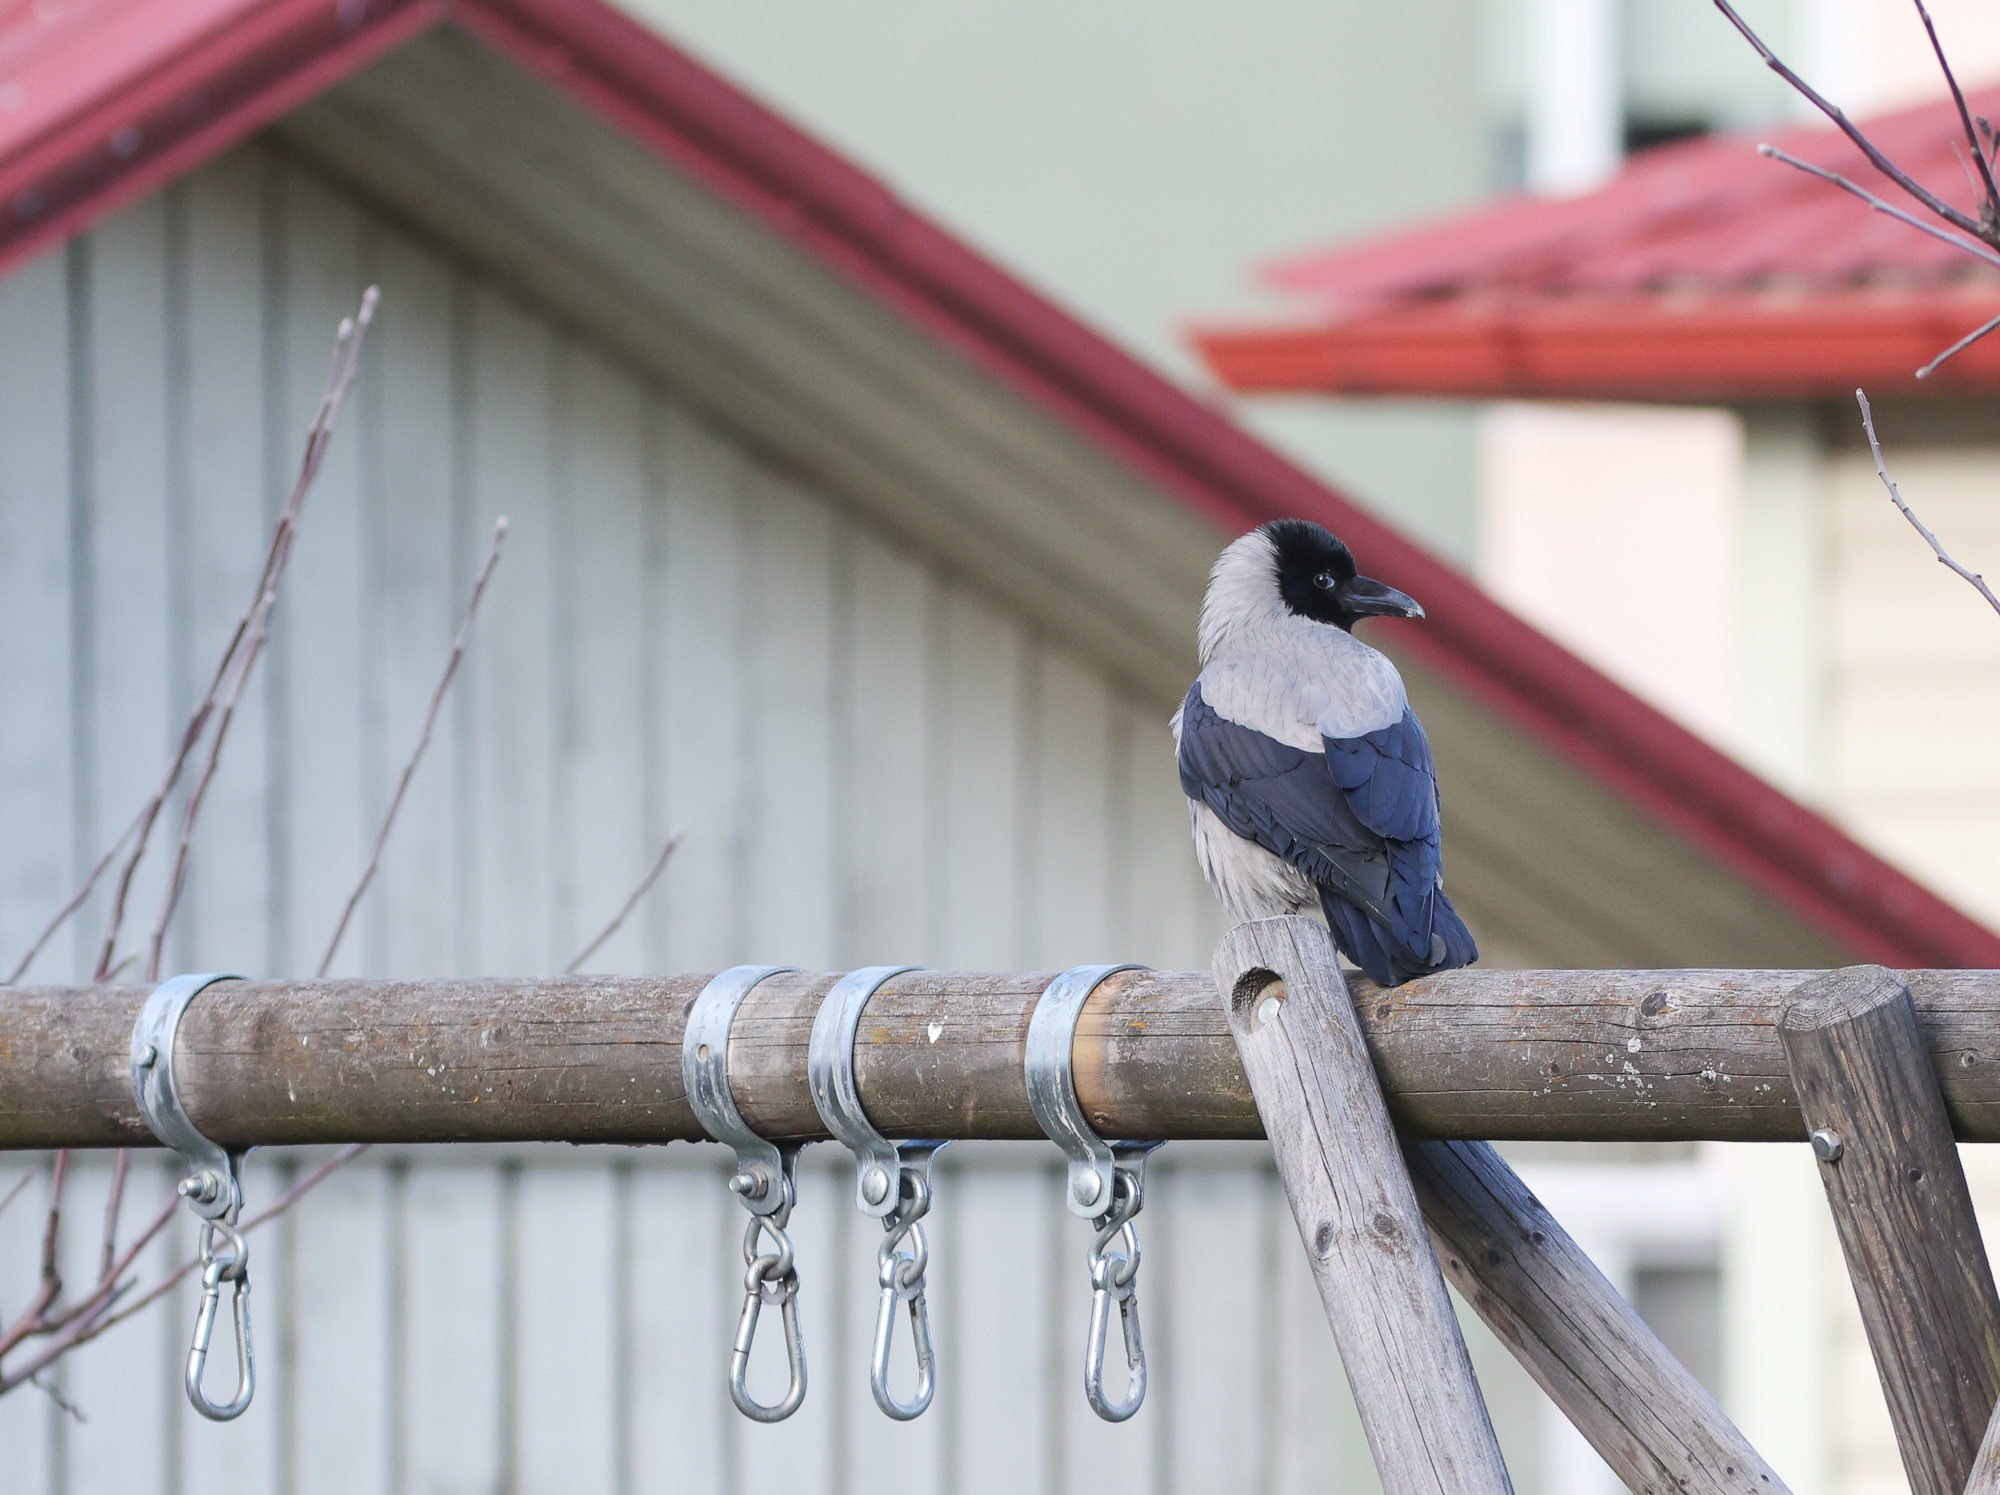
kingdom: Animalia
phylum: Chordata
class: Aves
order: Passeriformes
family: Corvidae
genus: Corvus
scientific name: Corvus cornix
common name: Hooded crow
